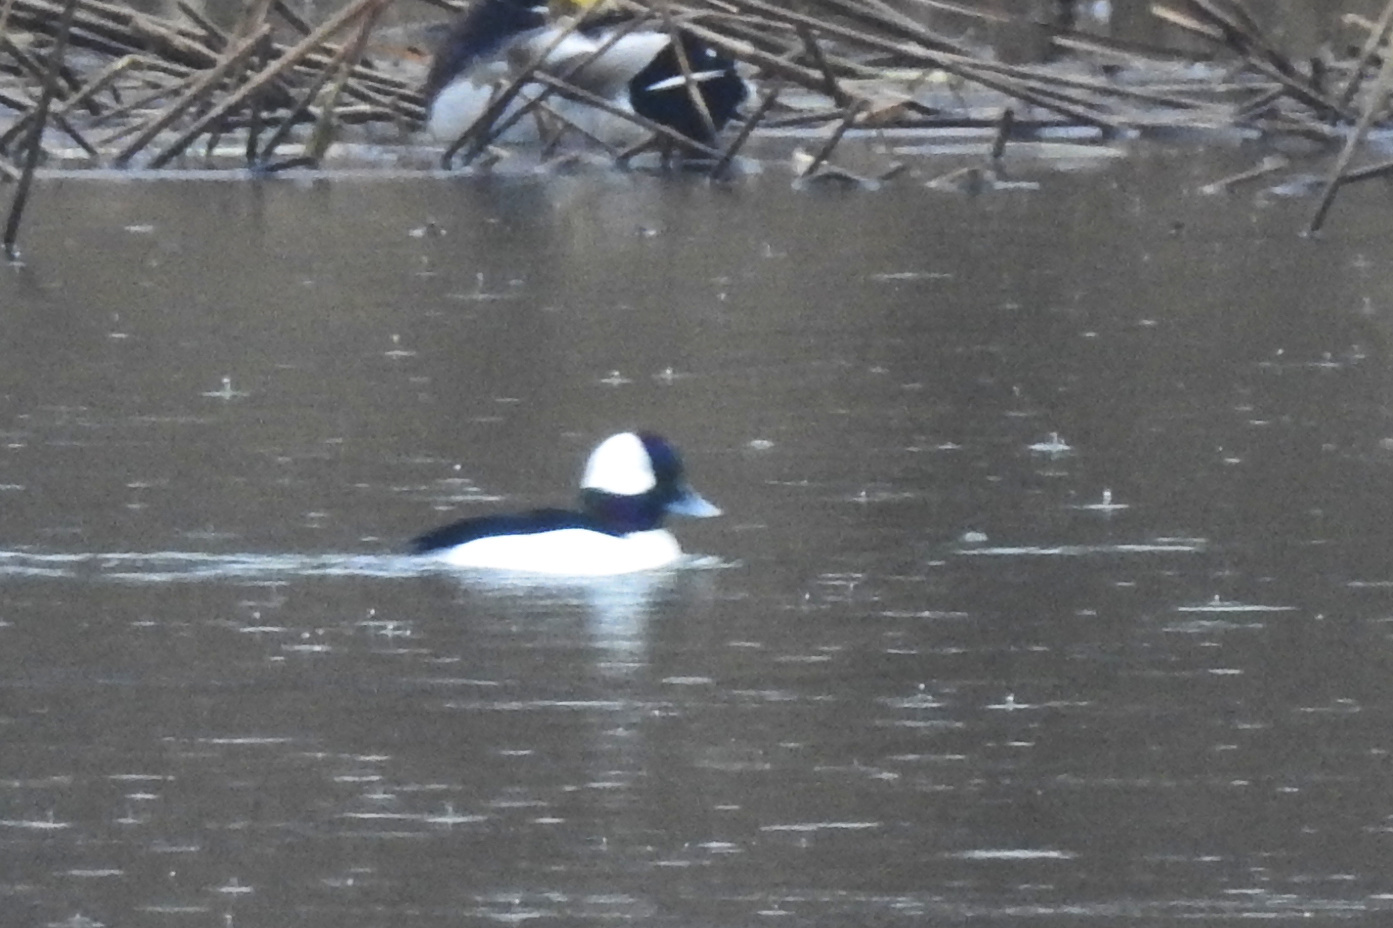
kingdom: Animalia
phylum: Chordata
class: Aves
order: Anseriformes
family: Anatidae
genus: Bucephala
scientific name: Bucephala albeola
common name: Bufflehead
